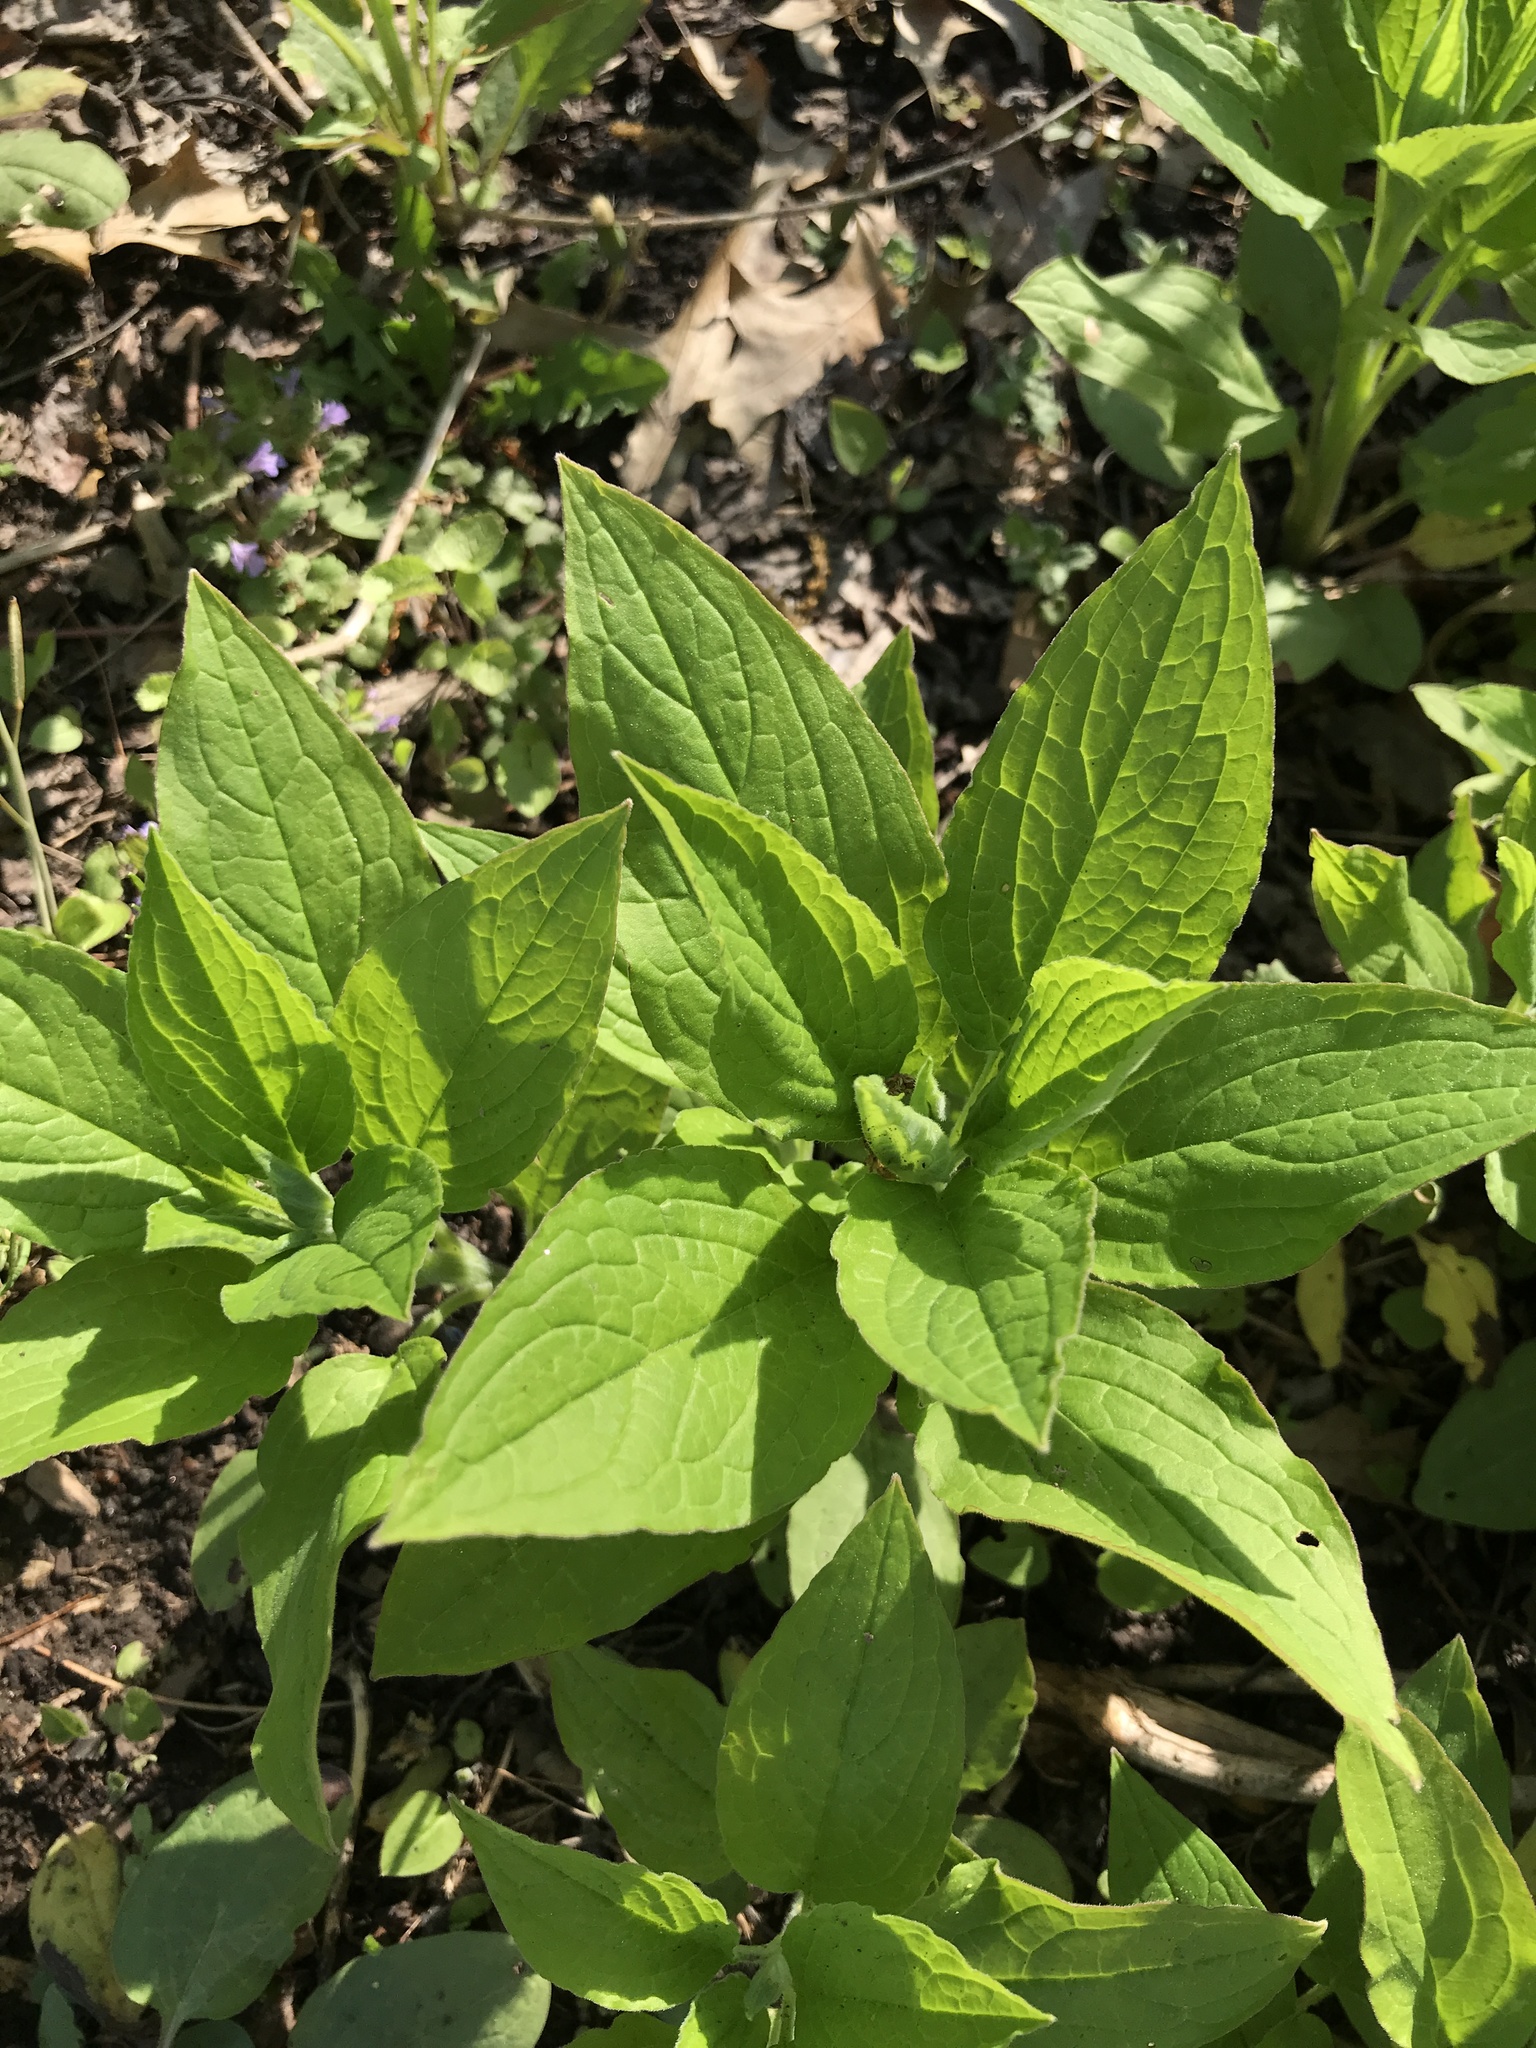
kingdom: Plantae
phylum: Tracheophyta
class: Magnoliopsida
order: Boraginales
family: Boraginaceae
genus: Hackelia
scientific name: Hackelia virginiana
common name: Beggar's-lice
